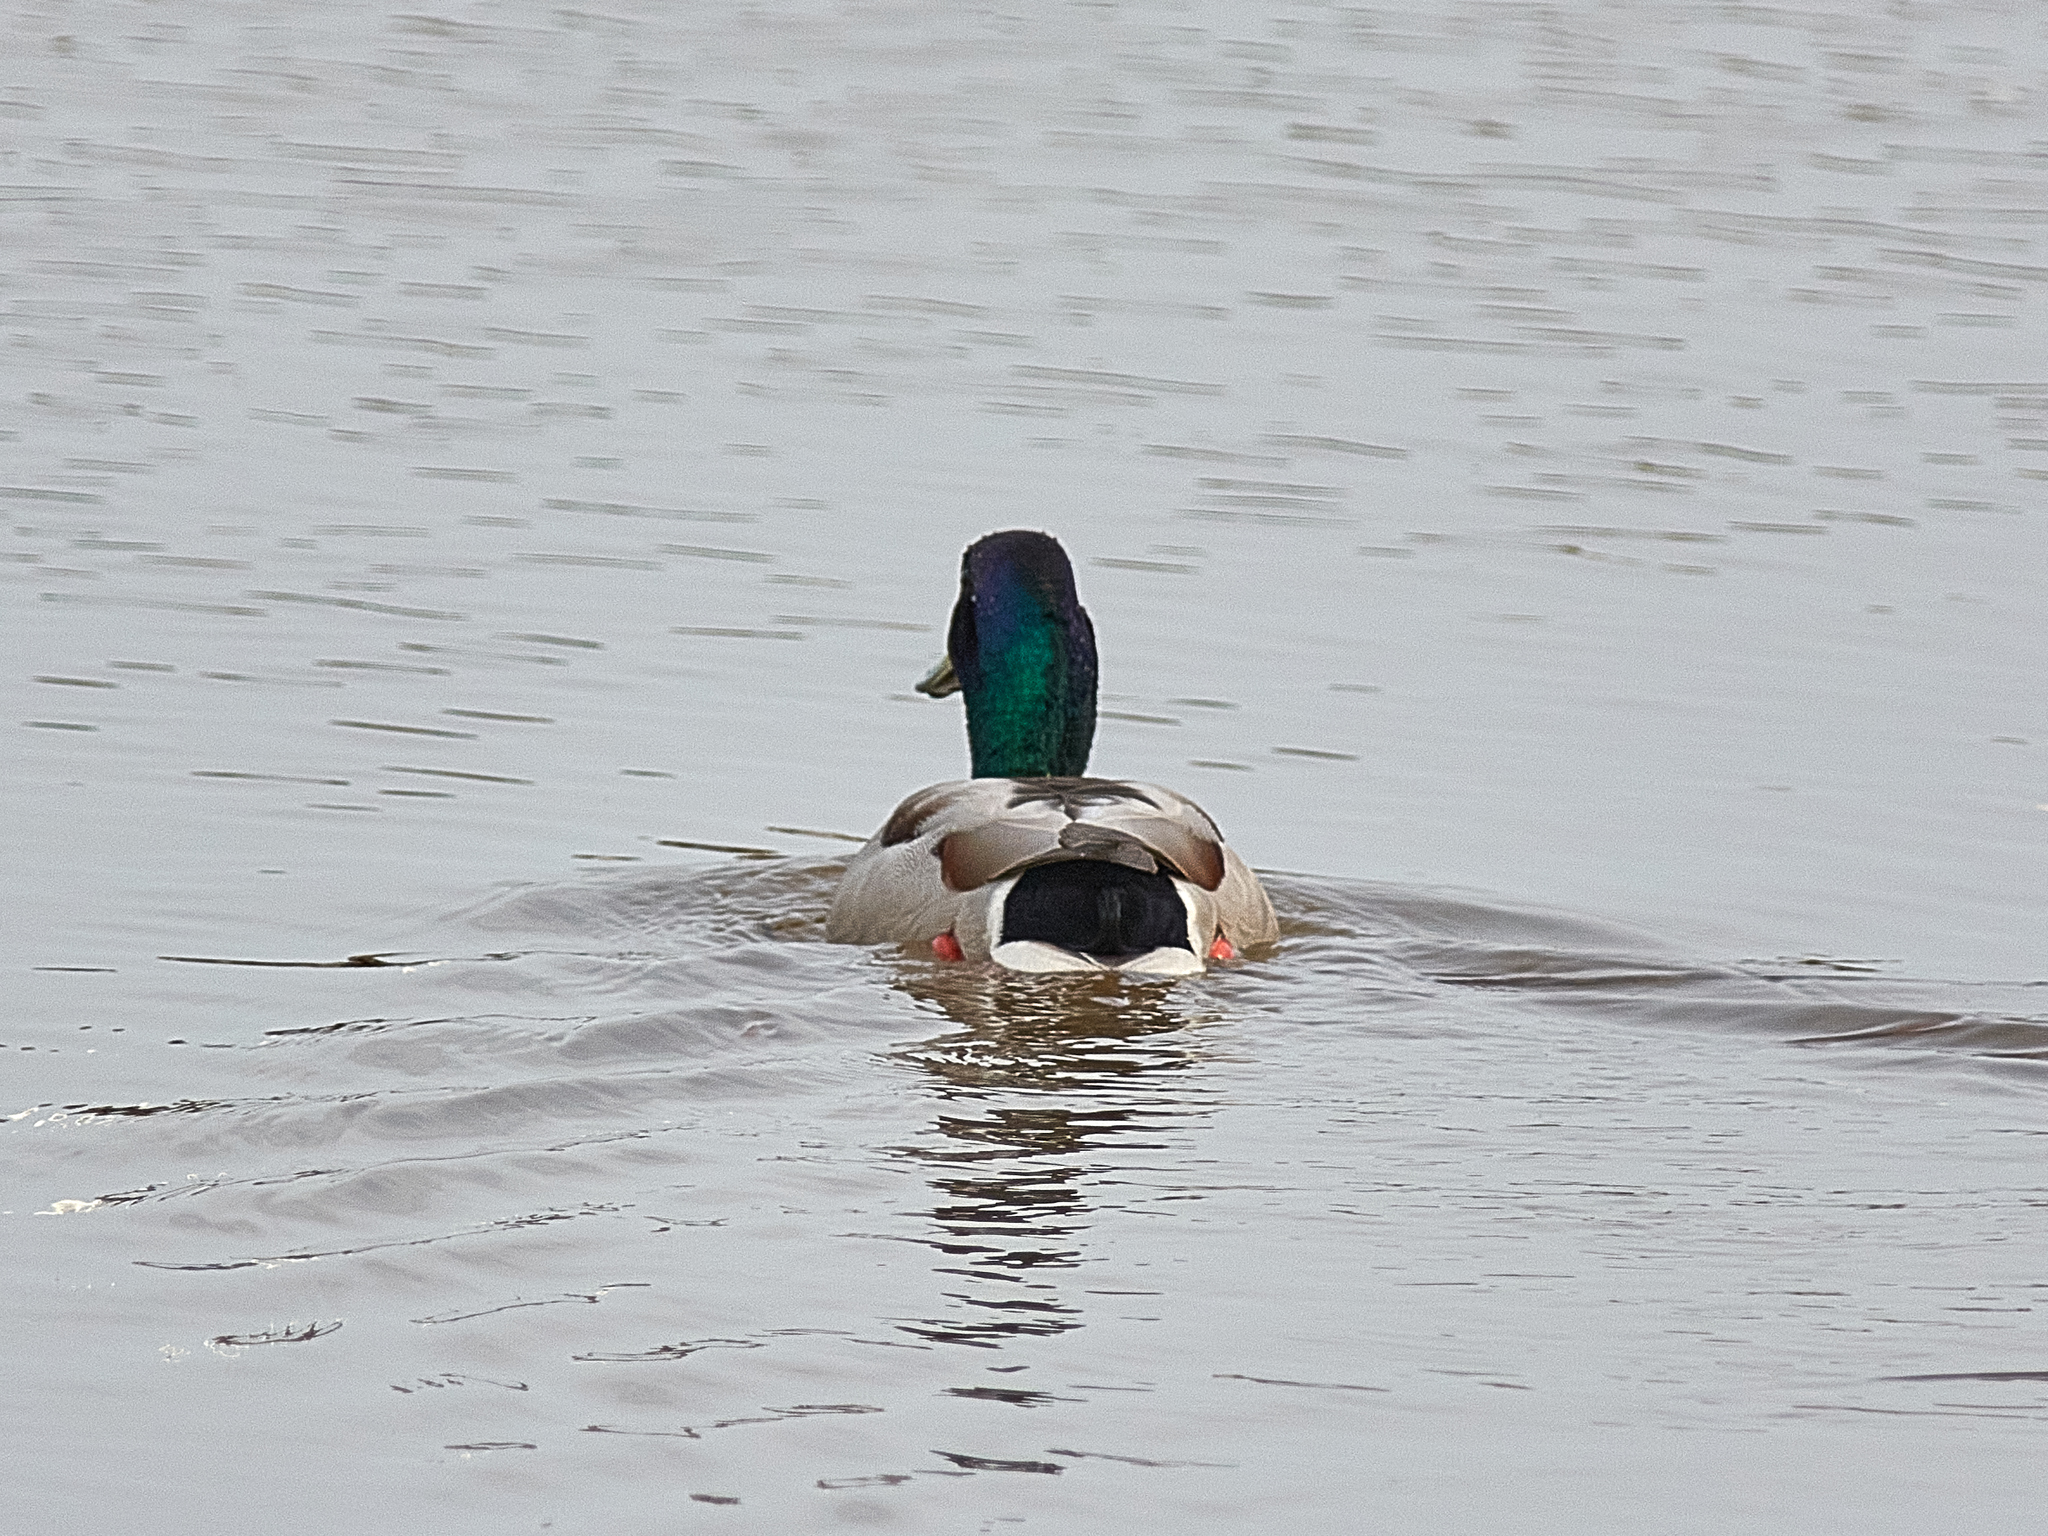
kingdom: Animalia
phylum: Chordata
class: Aves
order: Anseriformes
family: Anatidae
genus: Anas
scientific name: Anas platyrhynchos
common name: Mallard
